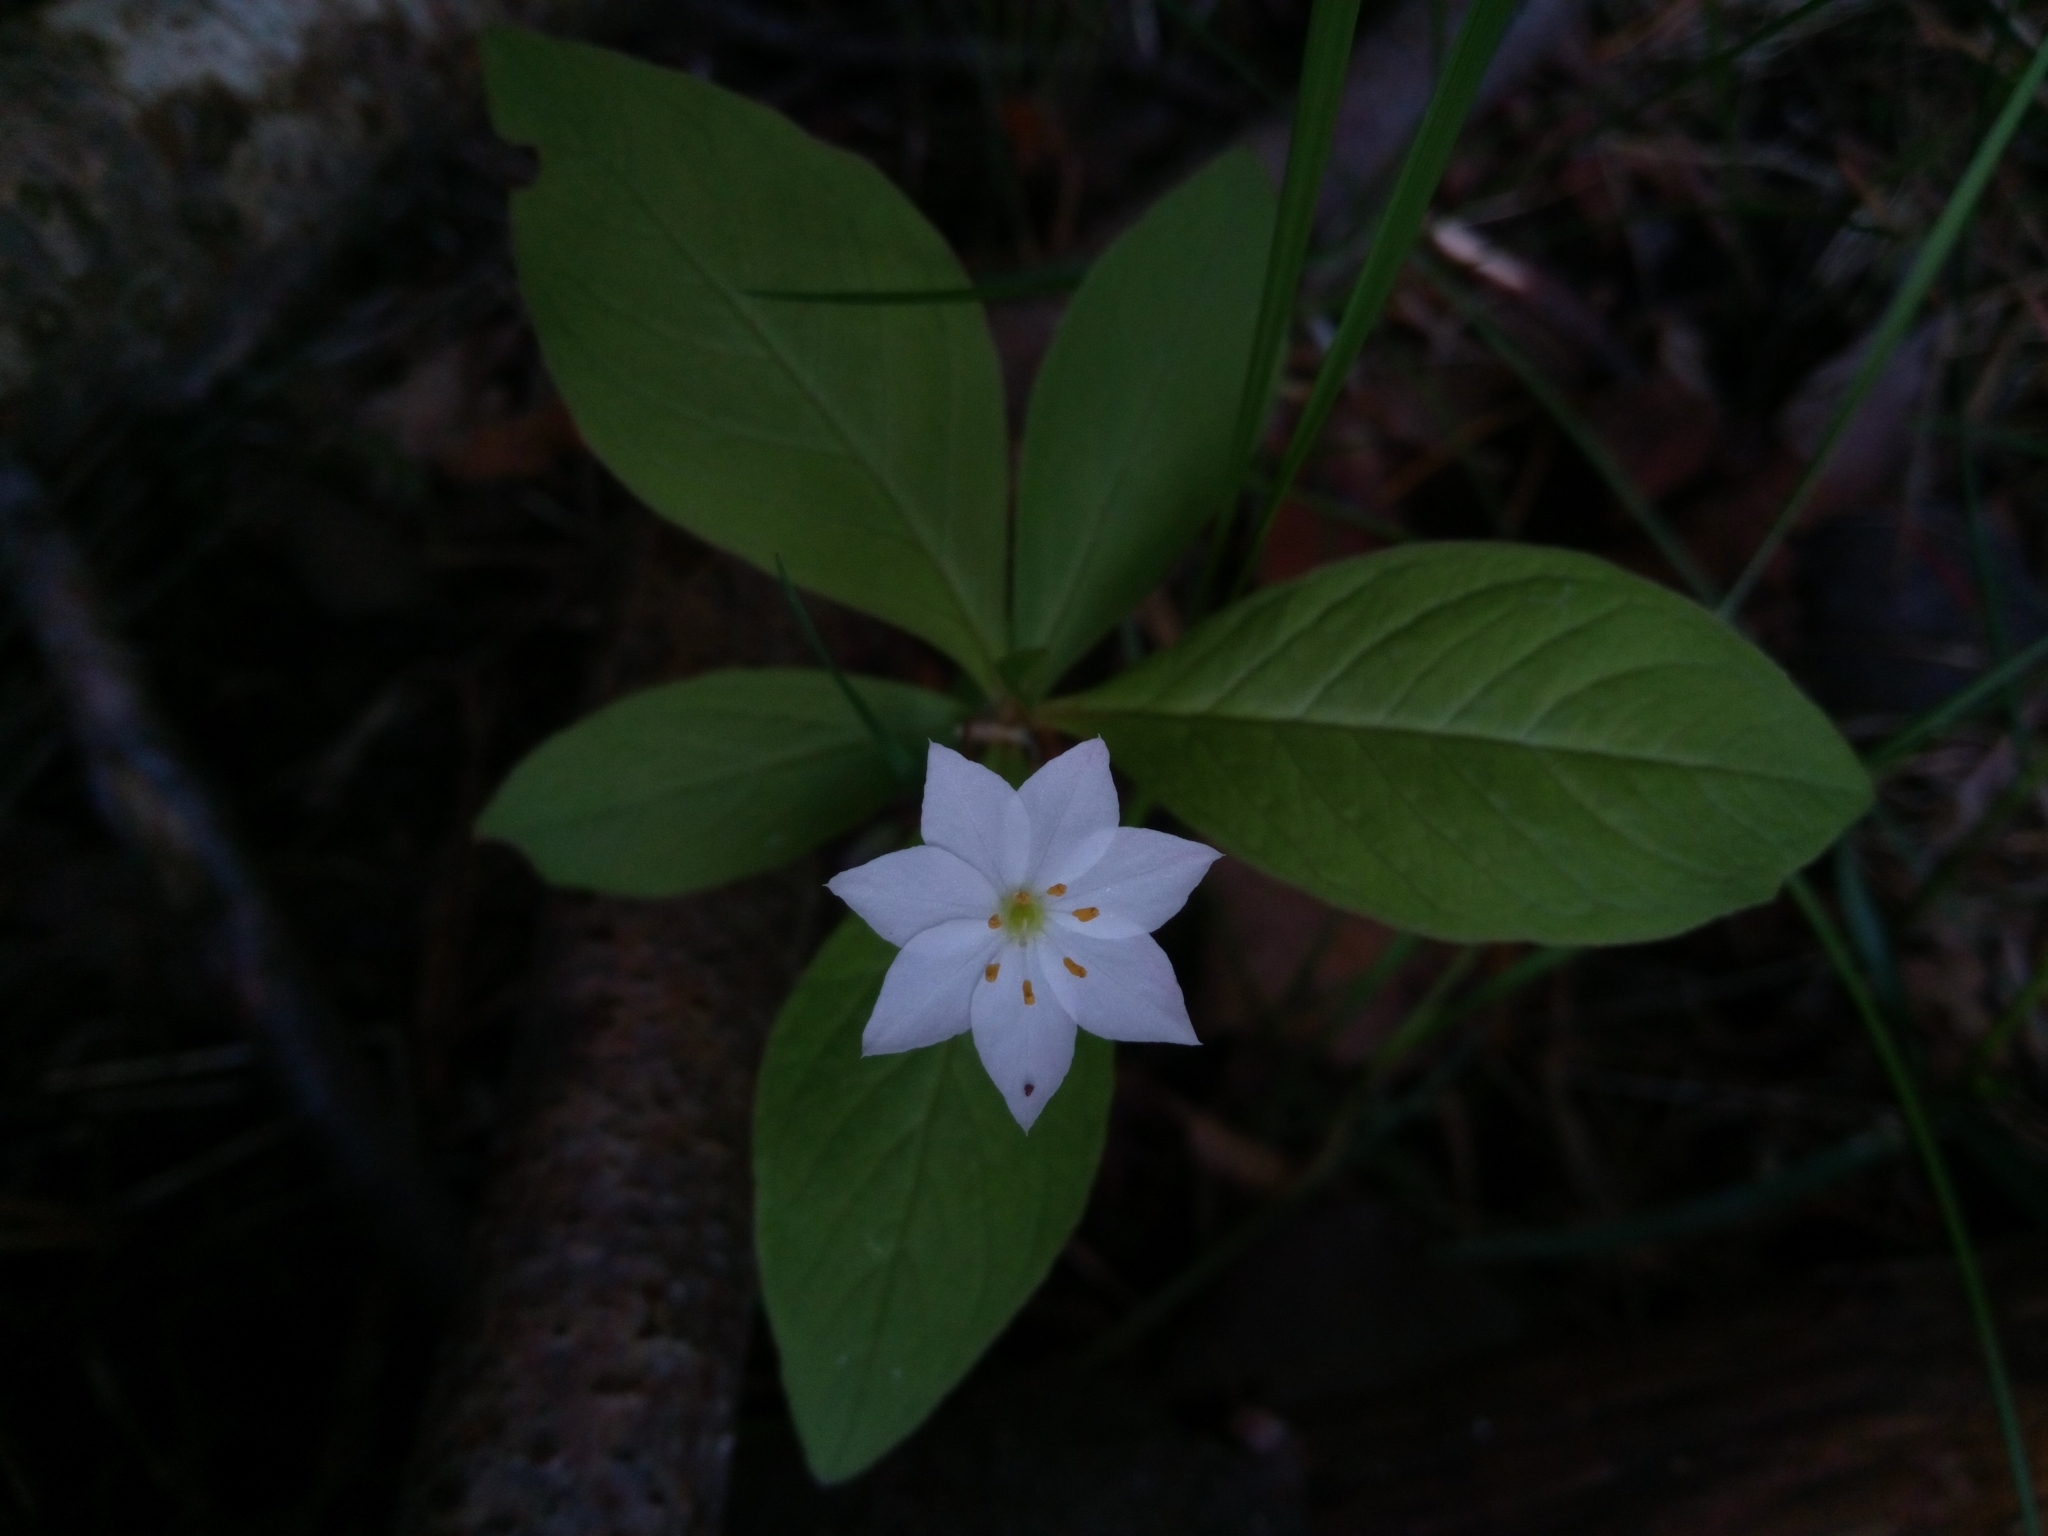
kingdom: Plantae
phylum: Tracheophyta
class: Magnoliopsida
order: Ericales
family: Primulaceae
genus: Lysimachia
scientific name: Lysimachia europaea
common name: Arctic starflower
